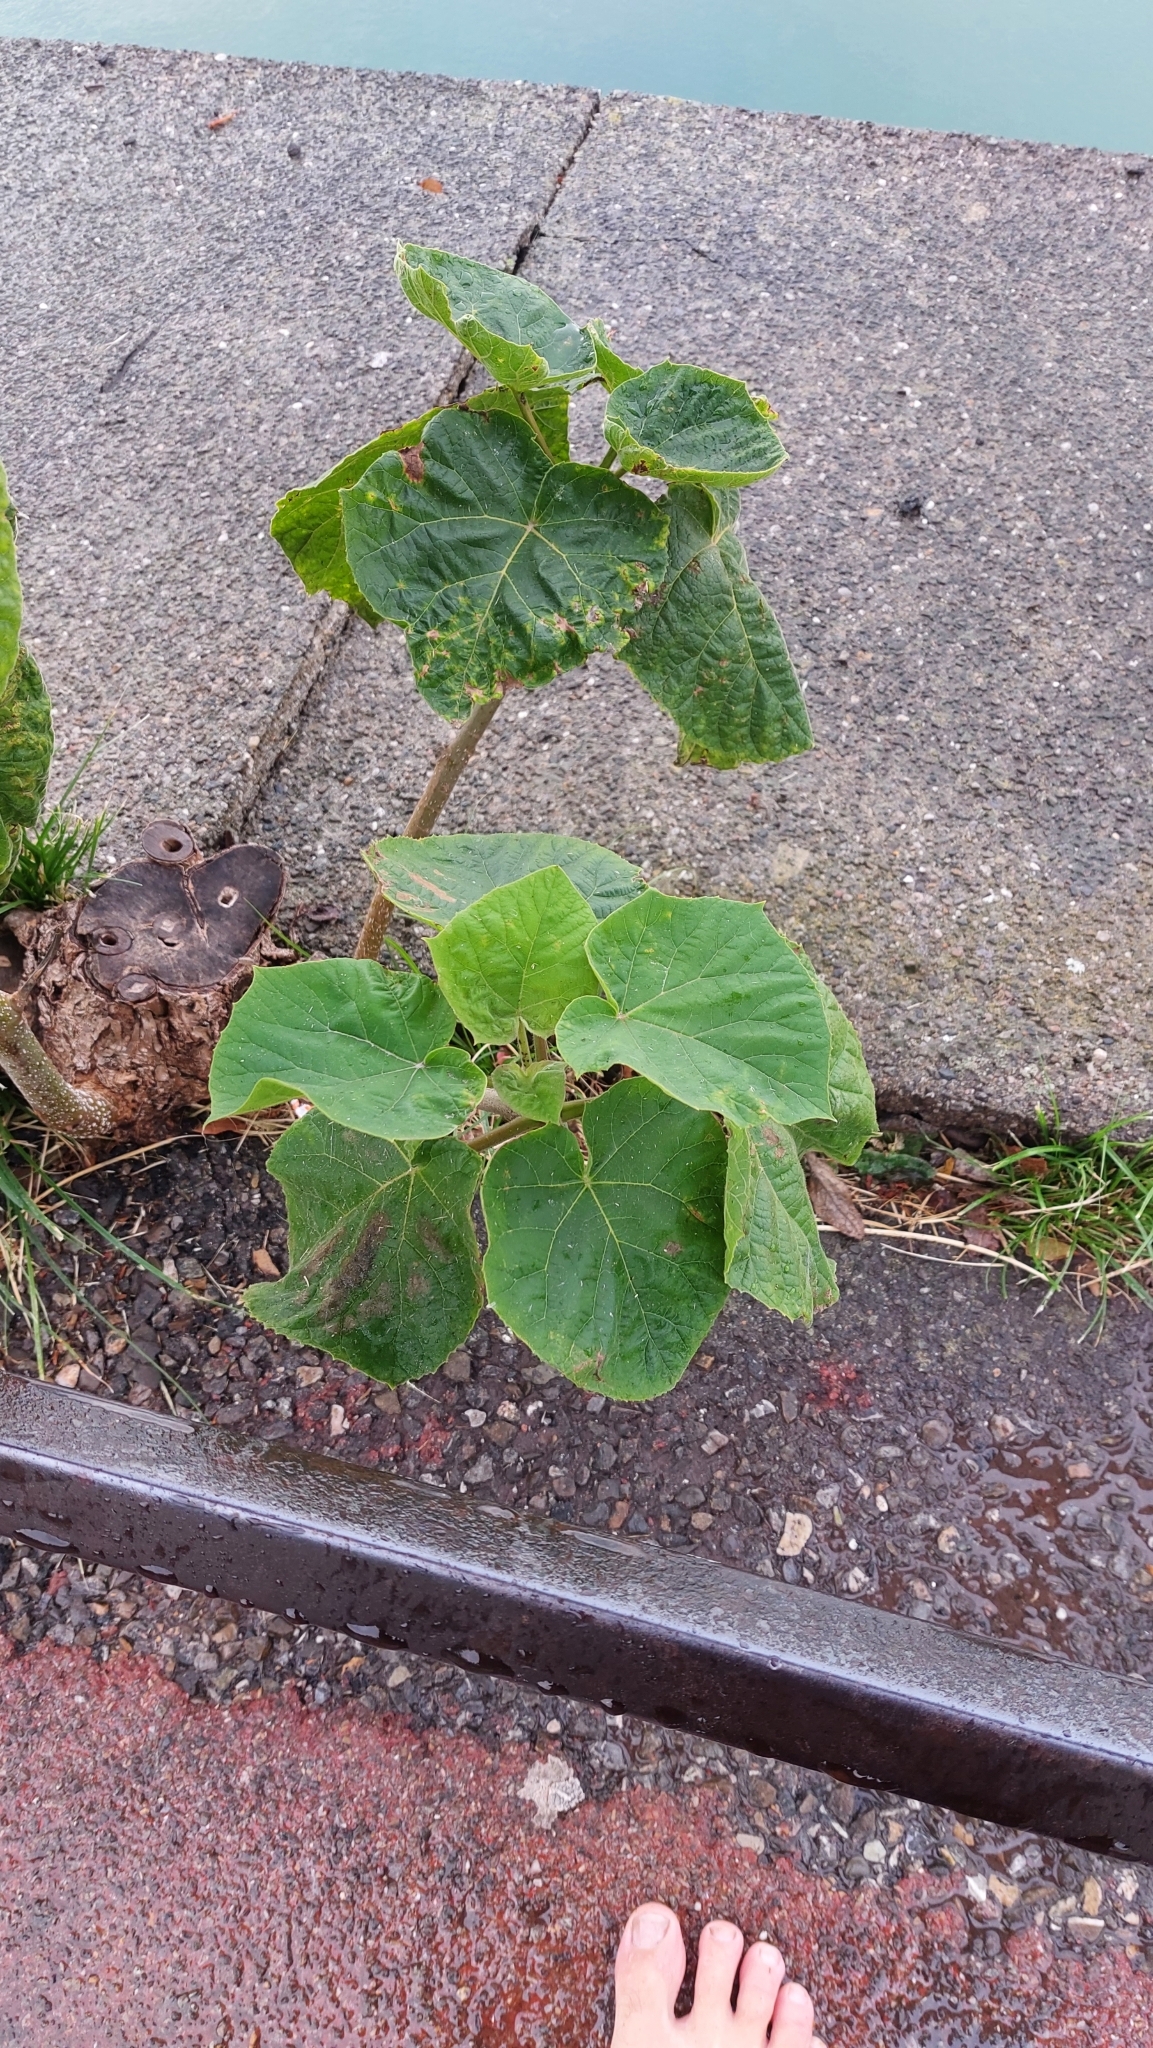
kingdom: Plantae
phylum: Tracheophyta
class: Magnoliopsida
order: Lamiales
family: Paulowniaceae
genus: Paulownia
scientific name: Paulownia tomentosa
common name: Foxglove-tree
